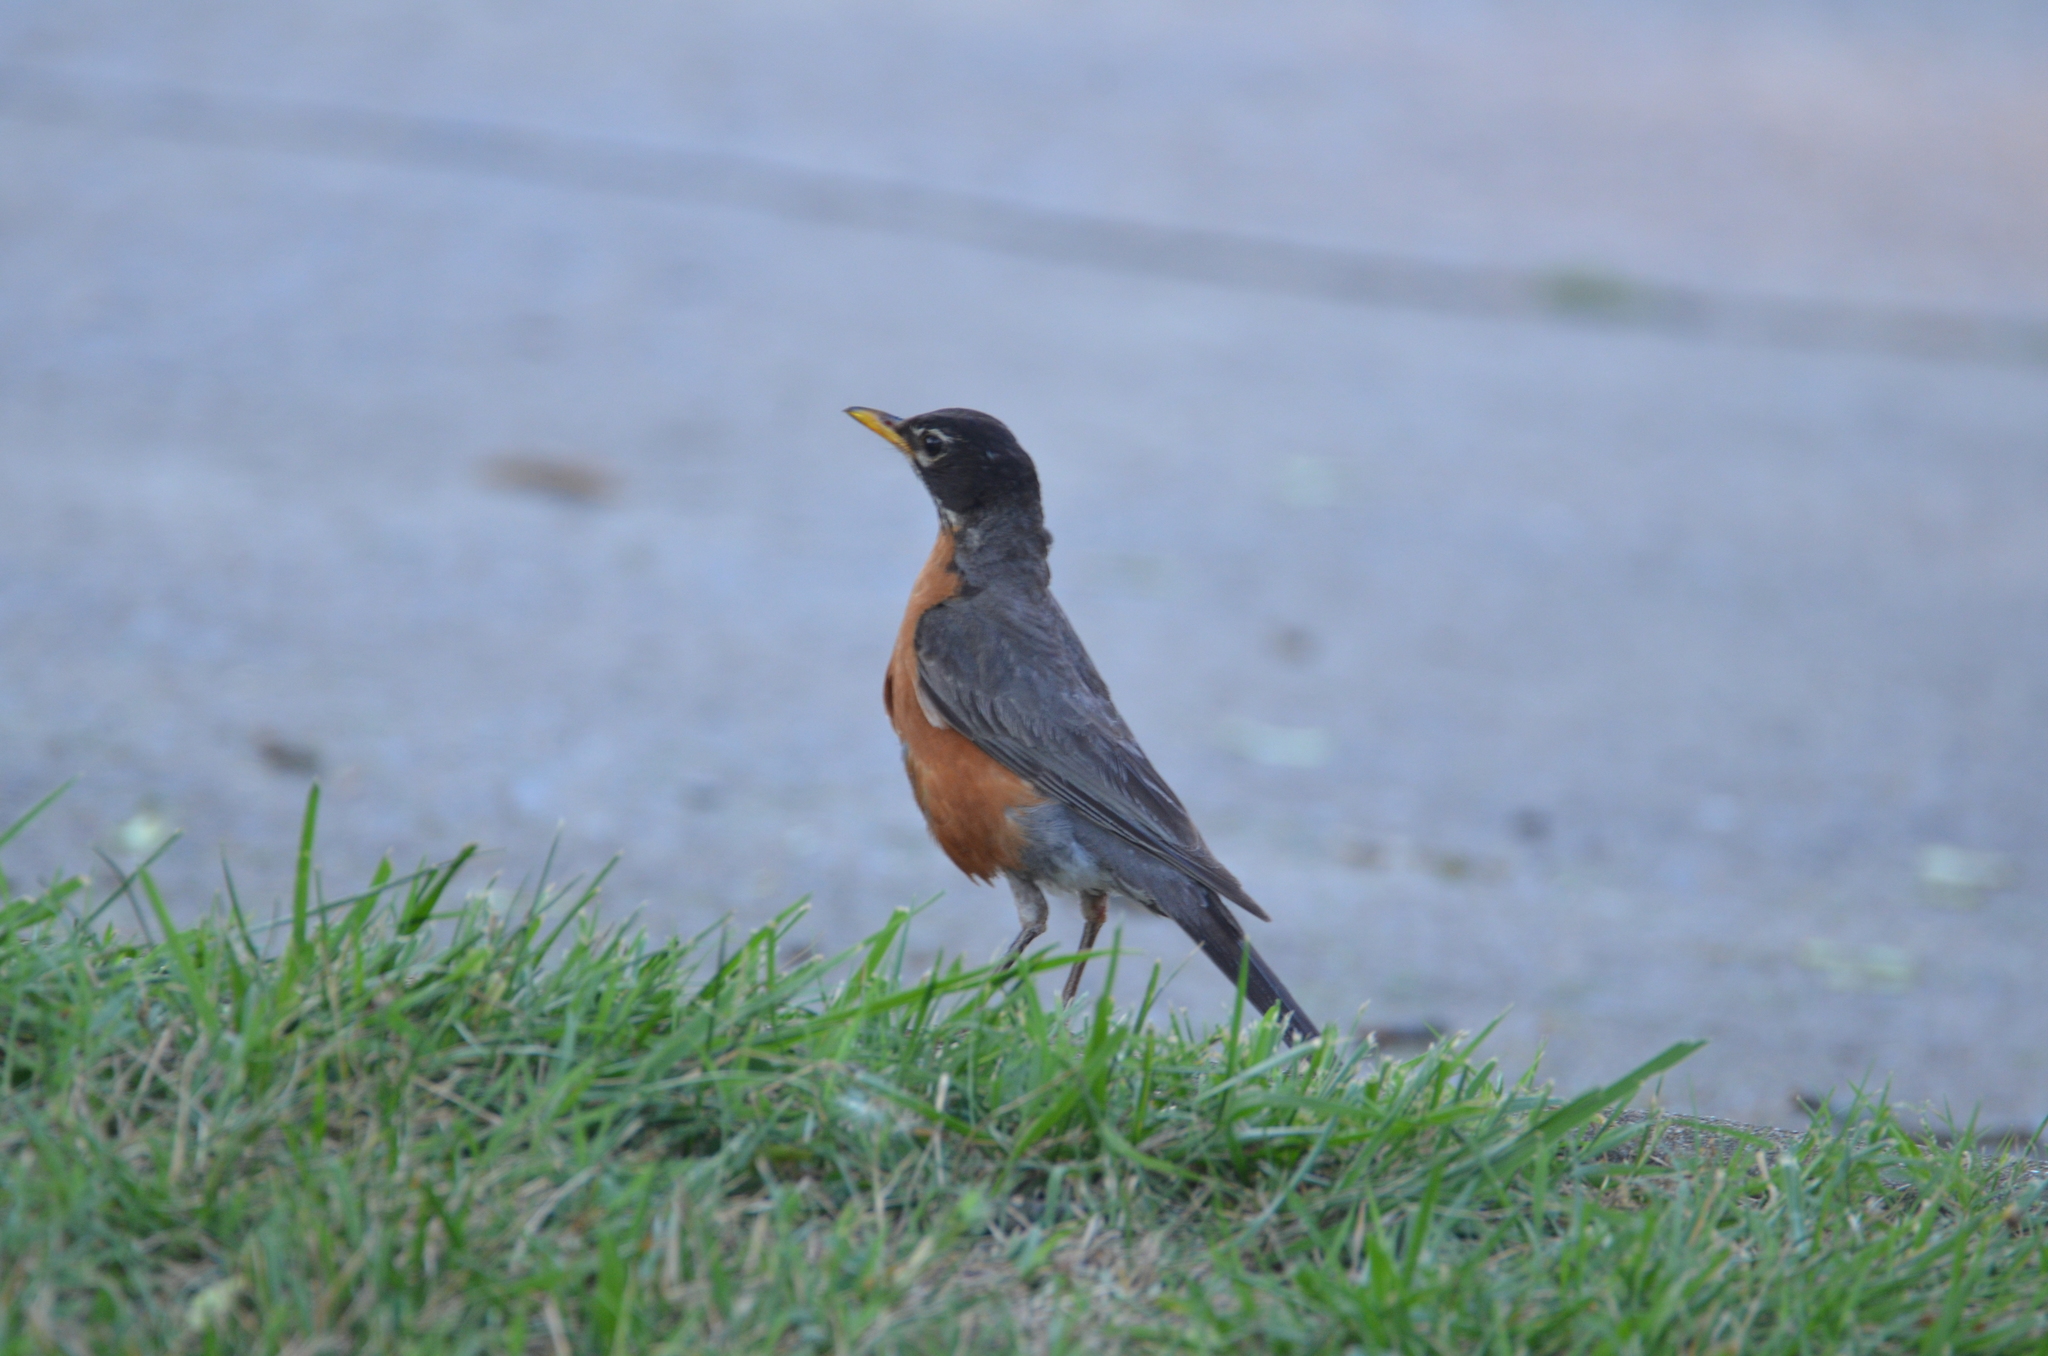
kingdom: Animalia
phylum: Chordata
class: Aves
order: Passeriformes
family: Turdidae
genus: Turdus
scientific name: Turdus migratorius
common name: American robin
